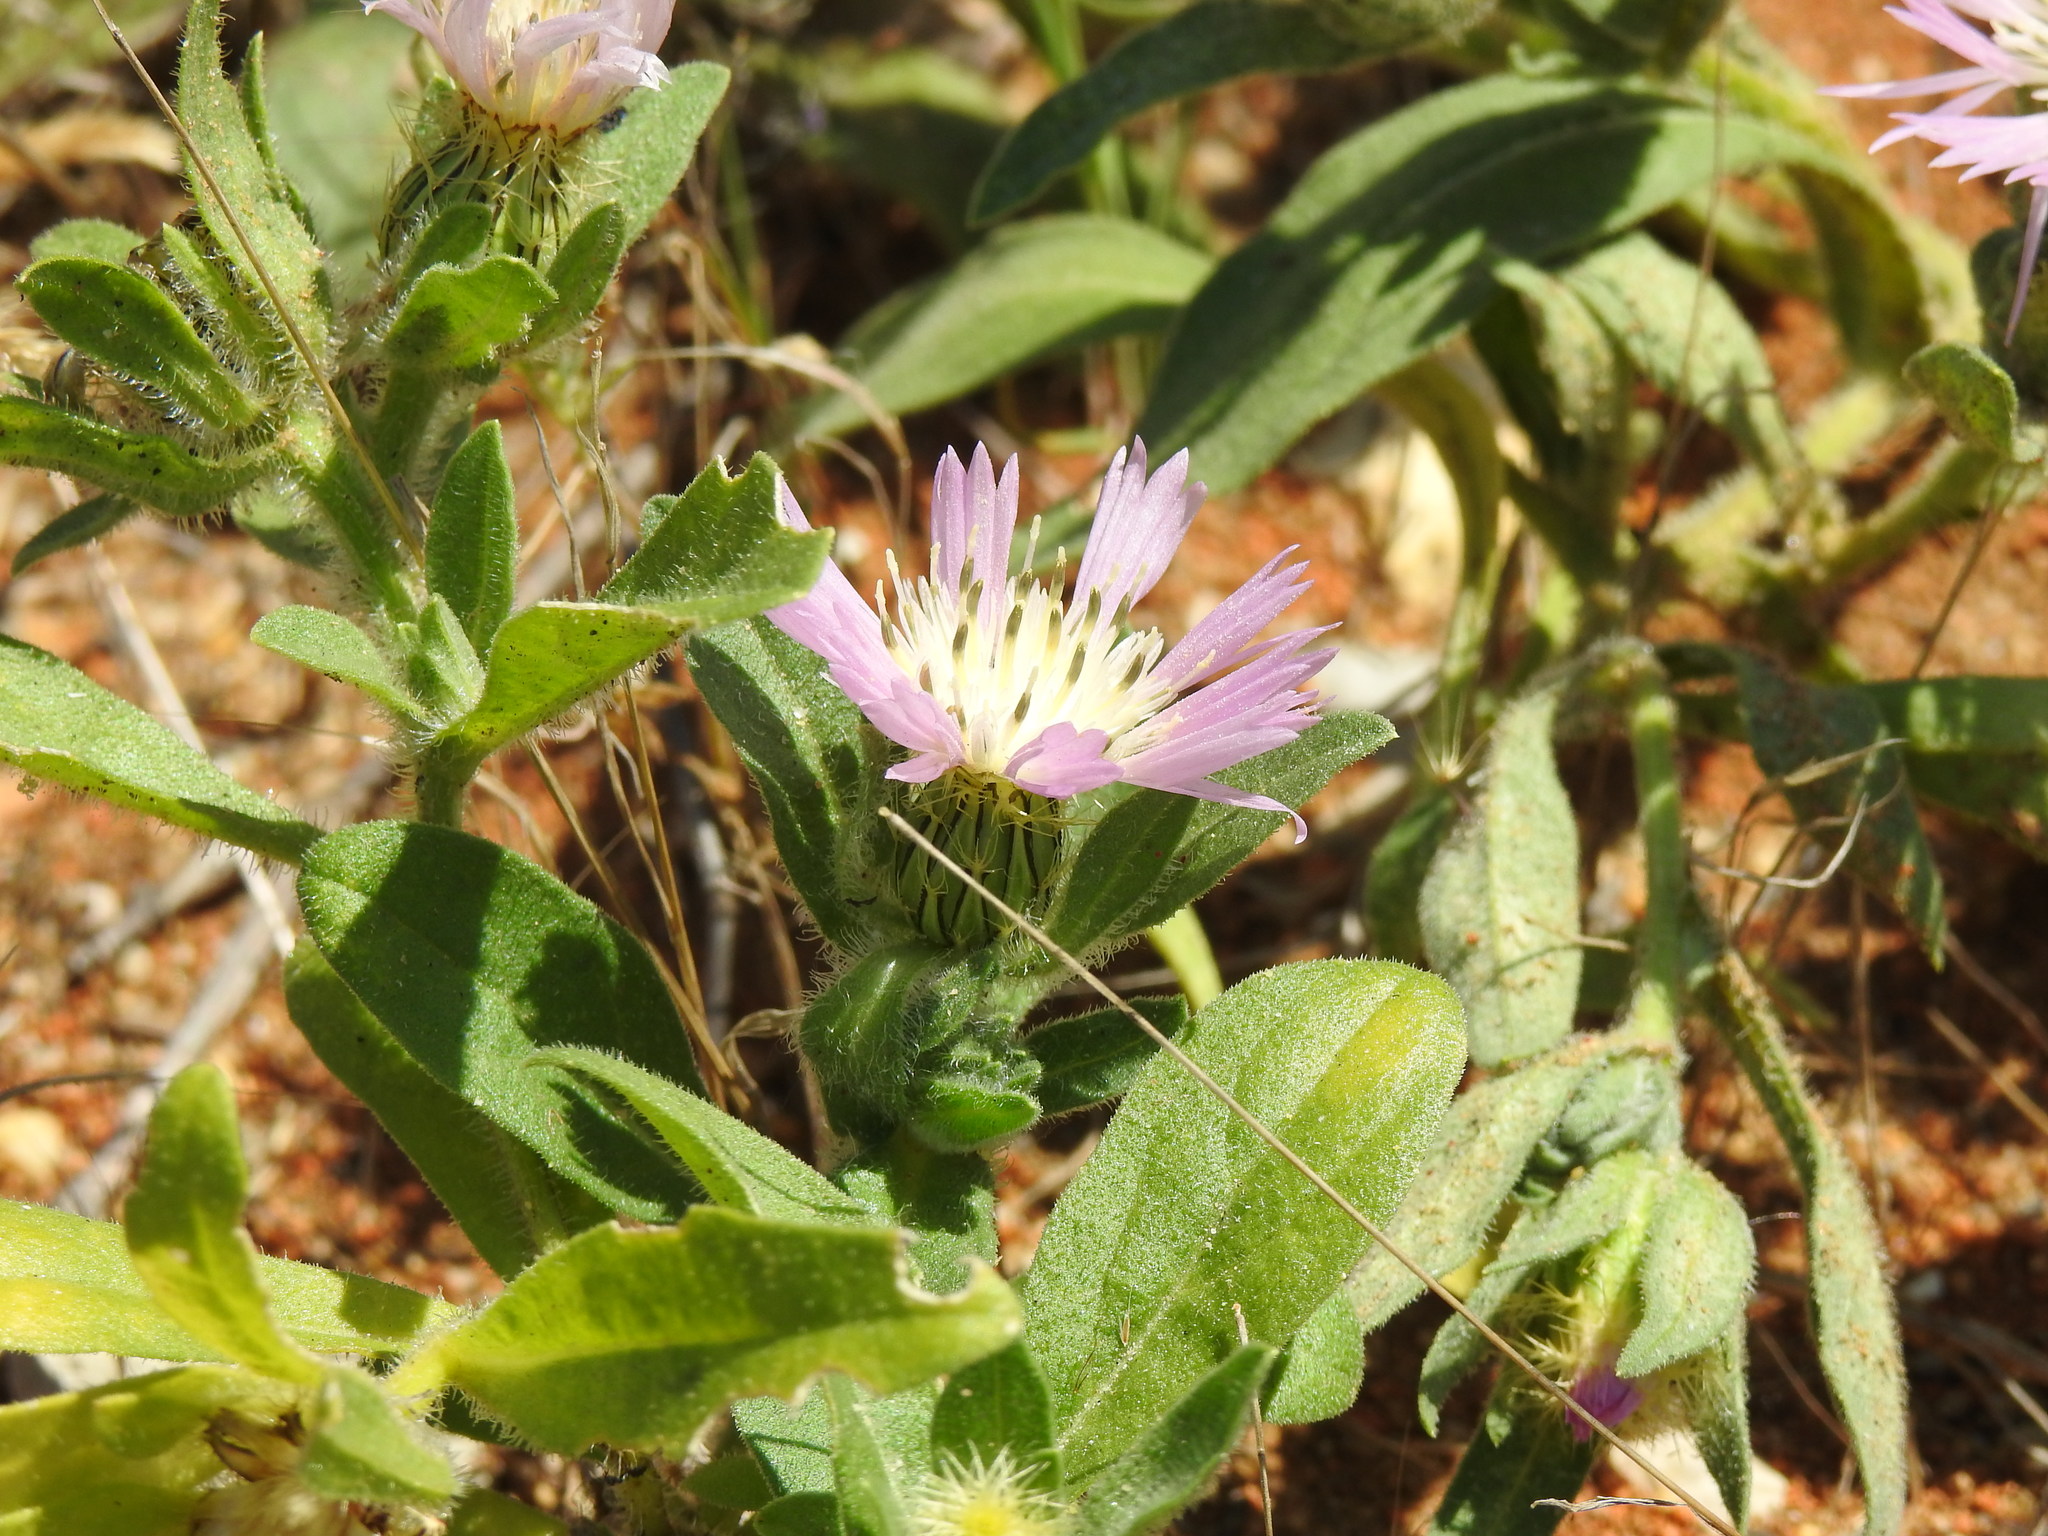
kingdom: Plantae
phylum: Tracheophyta
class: Magnoliopsida
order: Asterales
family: Asteraceae
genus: Centaurea
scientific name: Centaurea pullata
